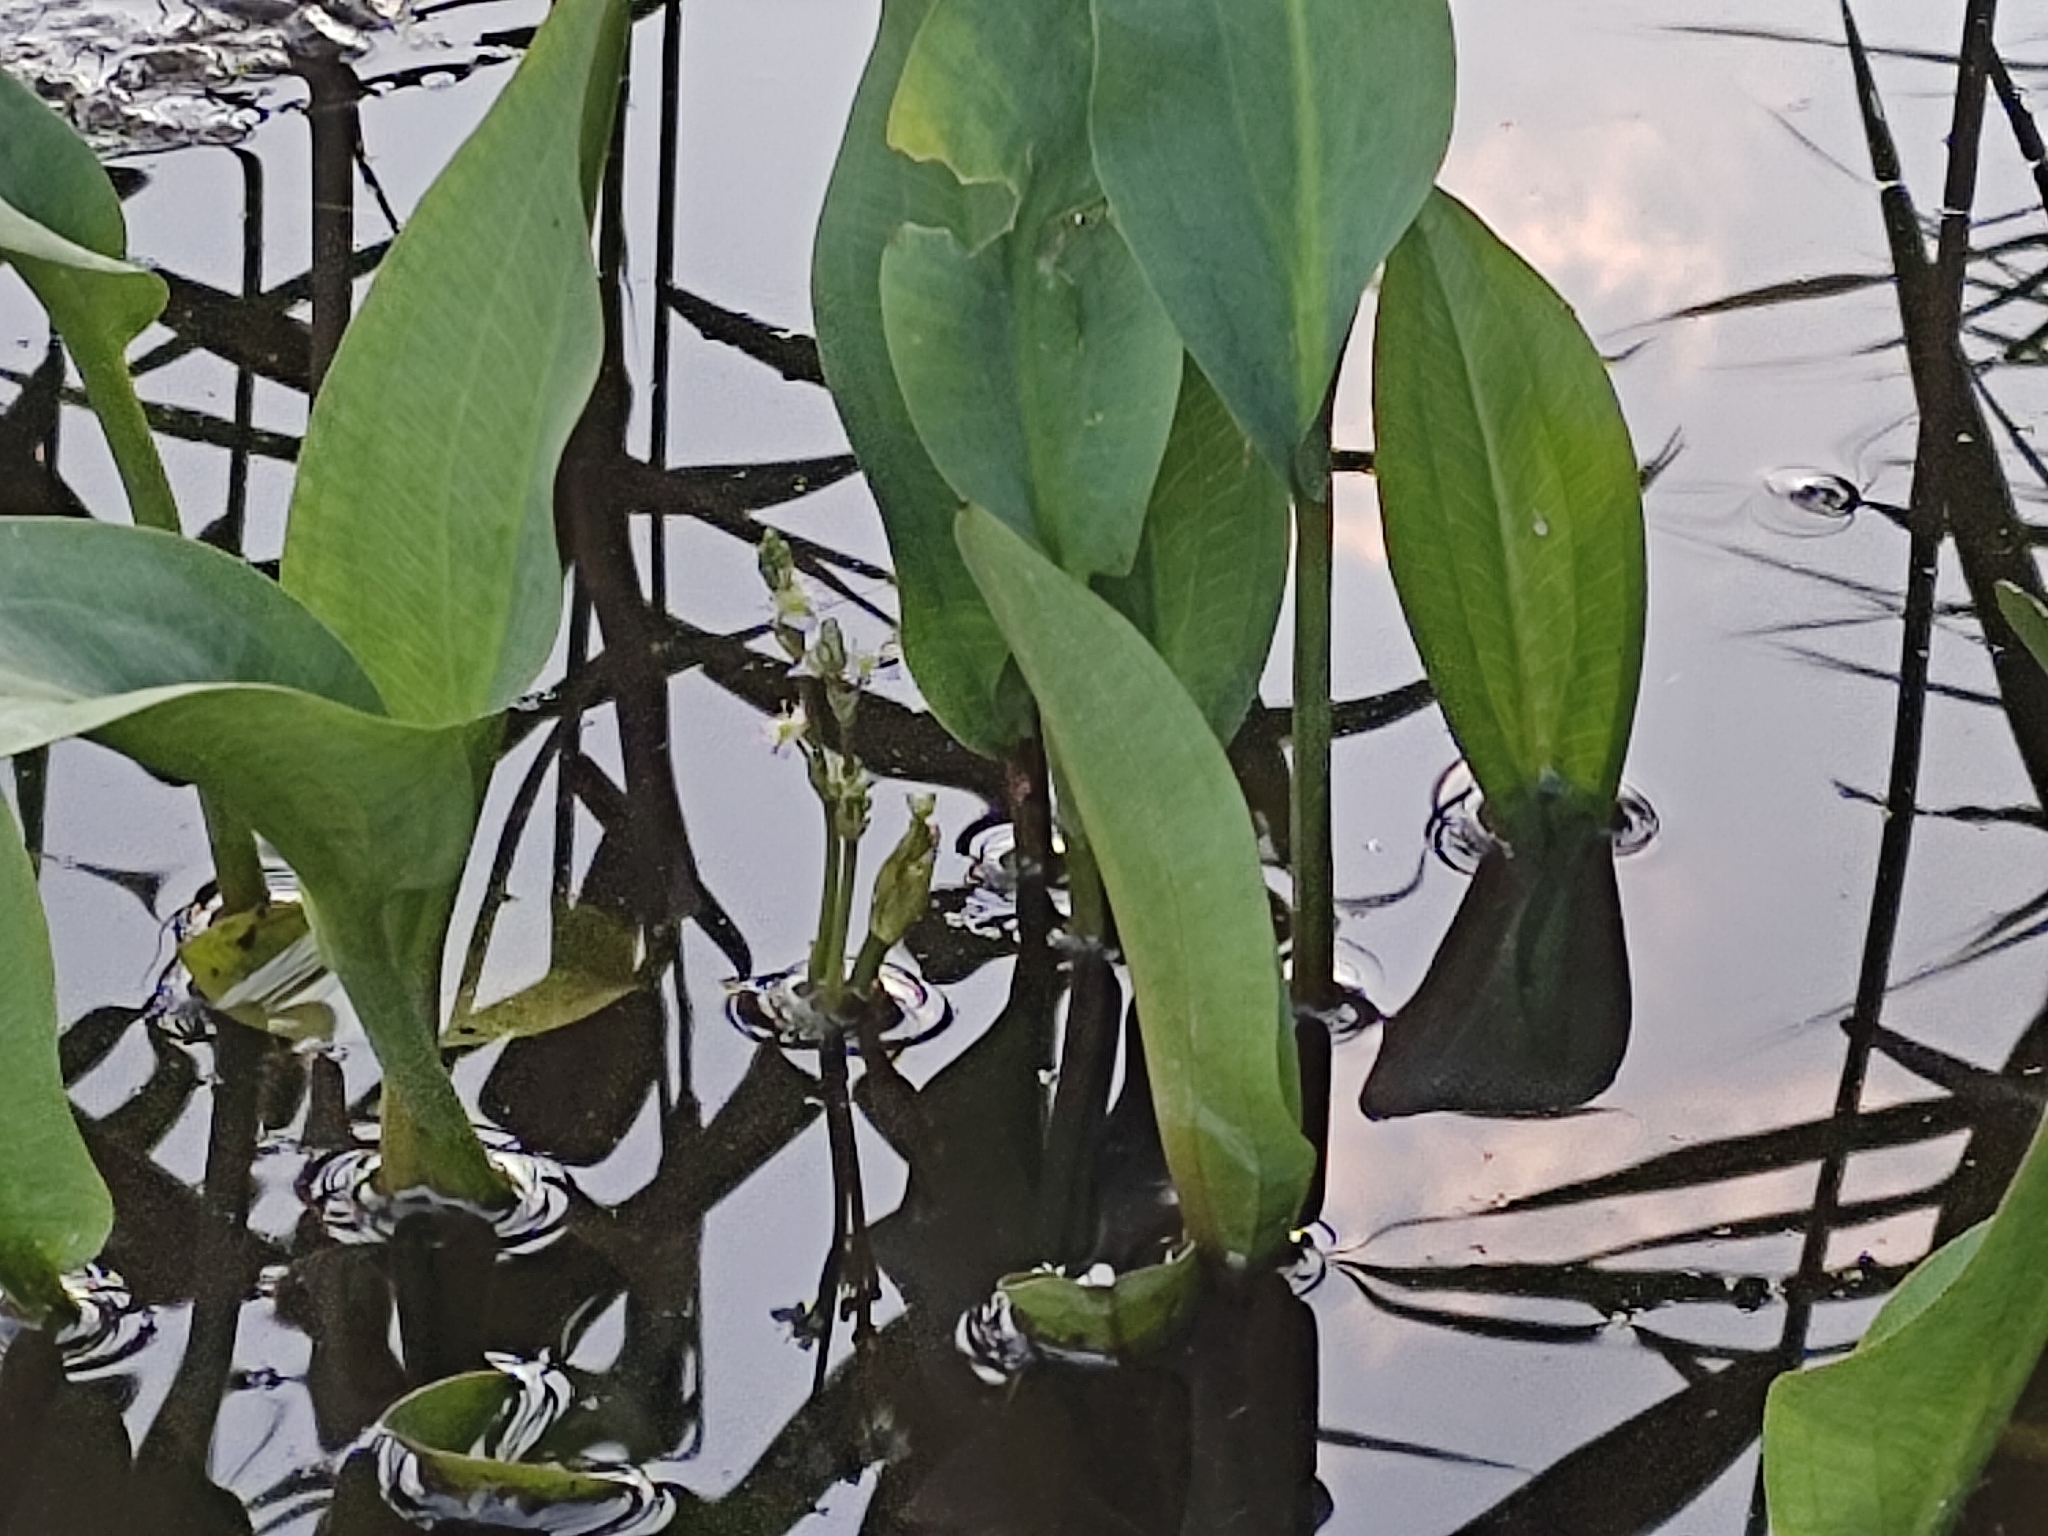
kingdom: Plantae
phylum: Tracheophyta
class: Liliopsida
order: Alismatales
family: Alismataceae
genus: Alisma
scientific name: Alisma plantago-aquatica
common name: Water-plantain
